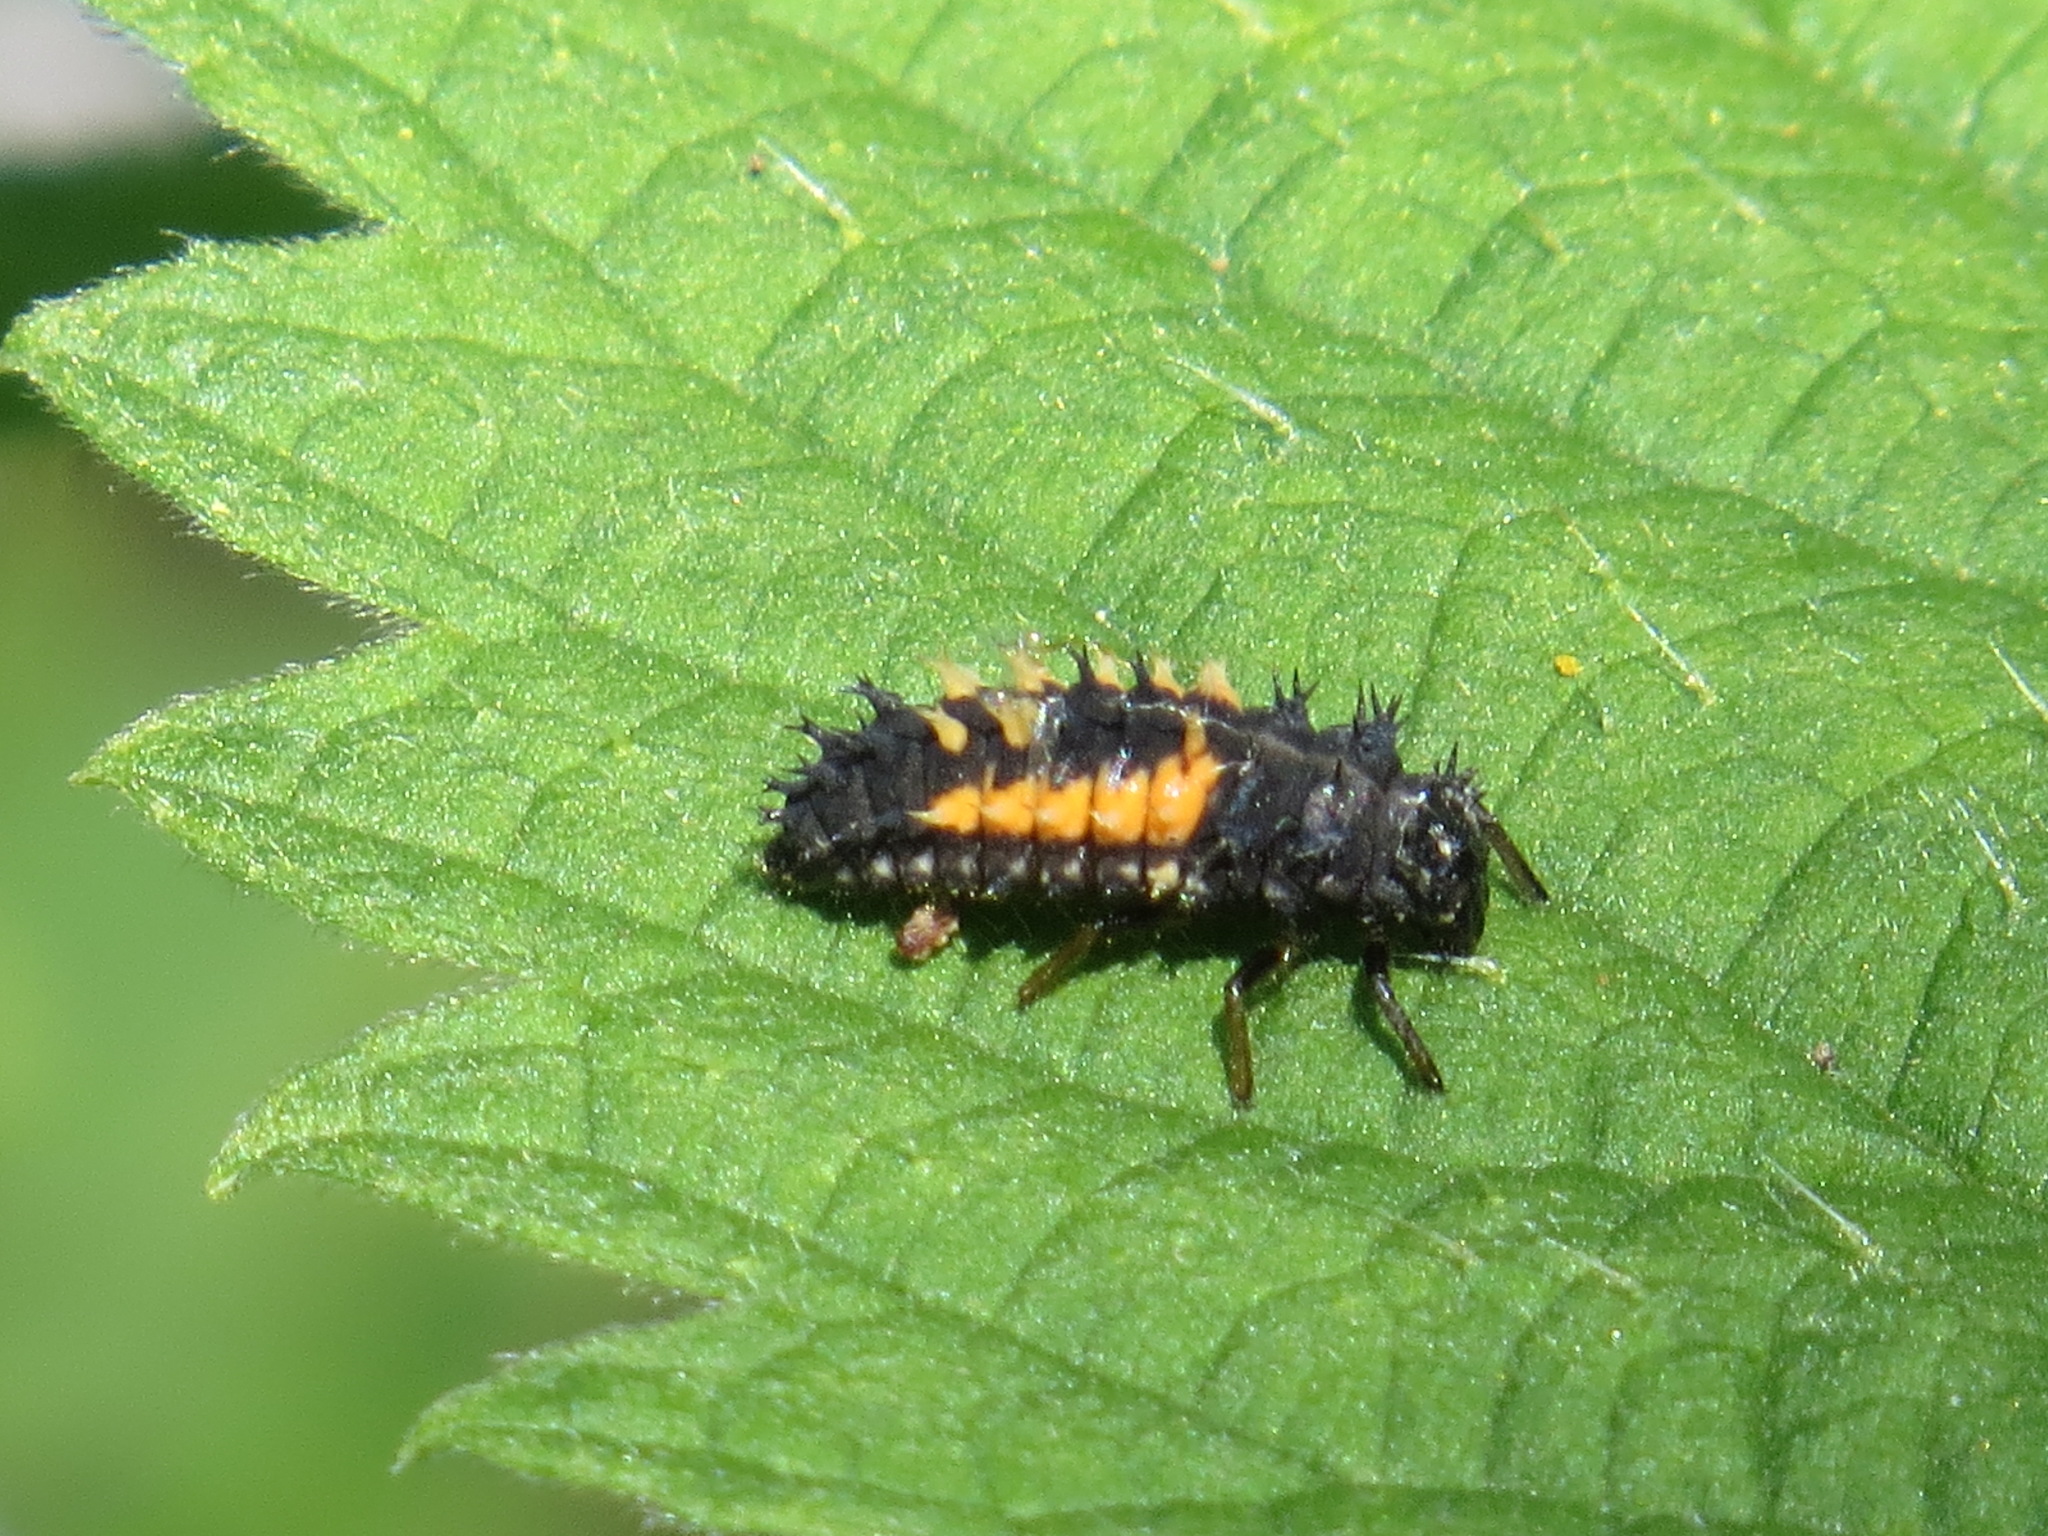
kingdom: Animalia
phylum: Arthropoda
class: Insecta
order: Coleoptera
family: Coccinellidae
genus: Harmonia
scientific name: Harmonia axyridis
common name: Harlequin ladybird
